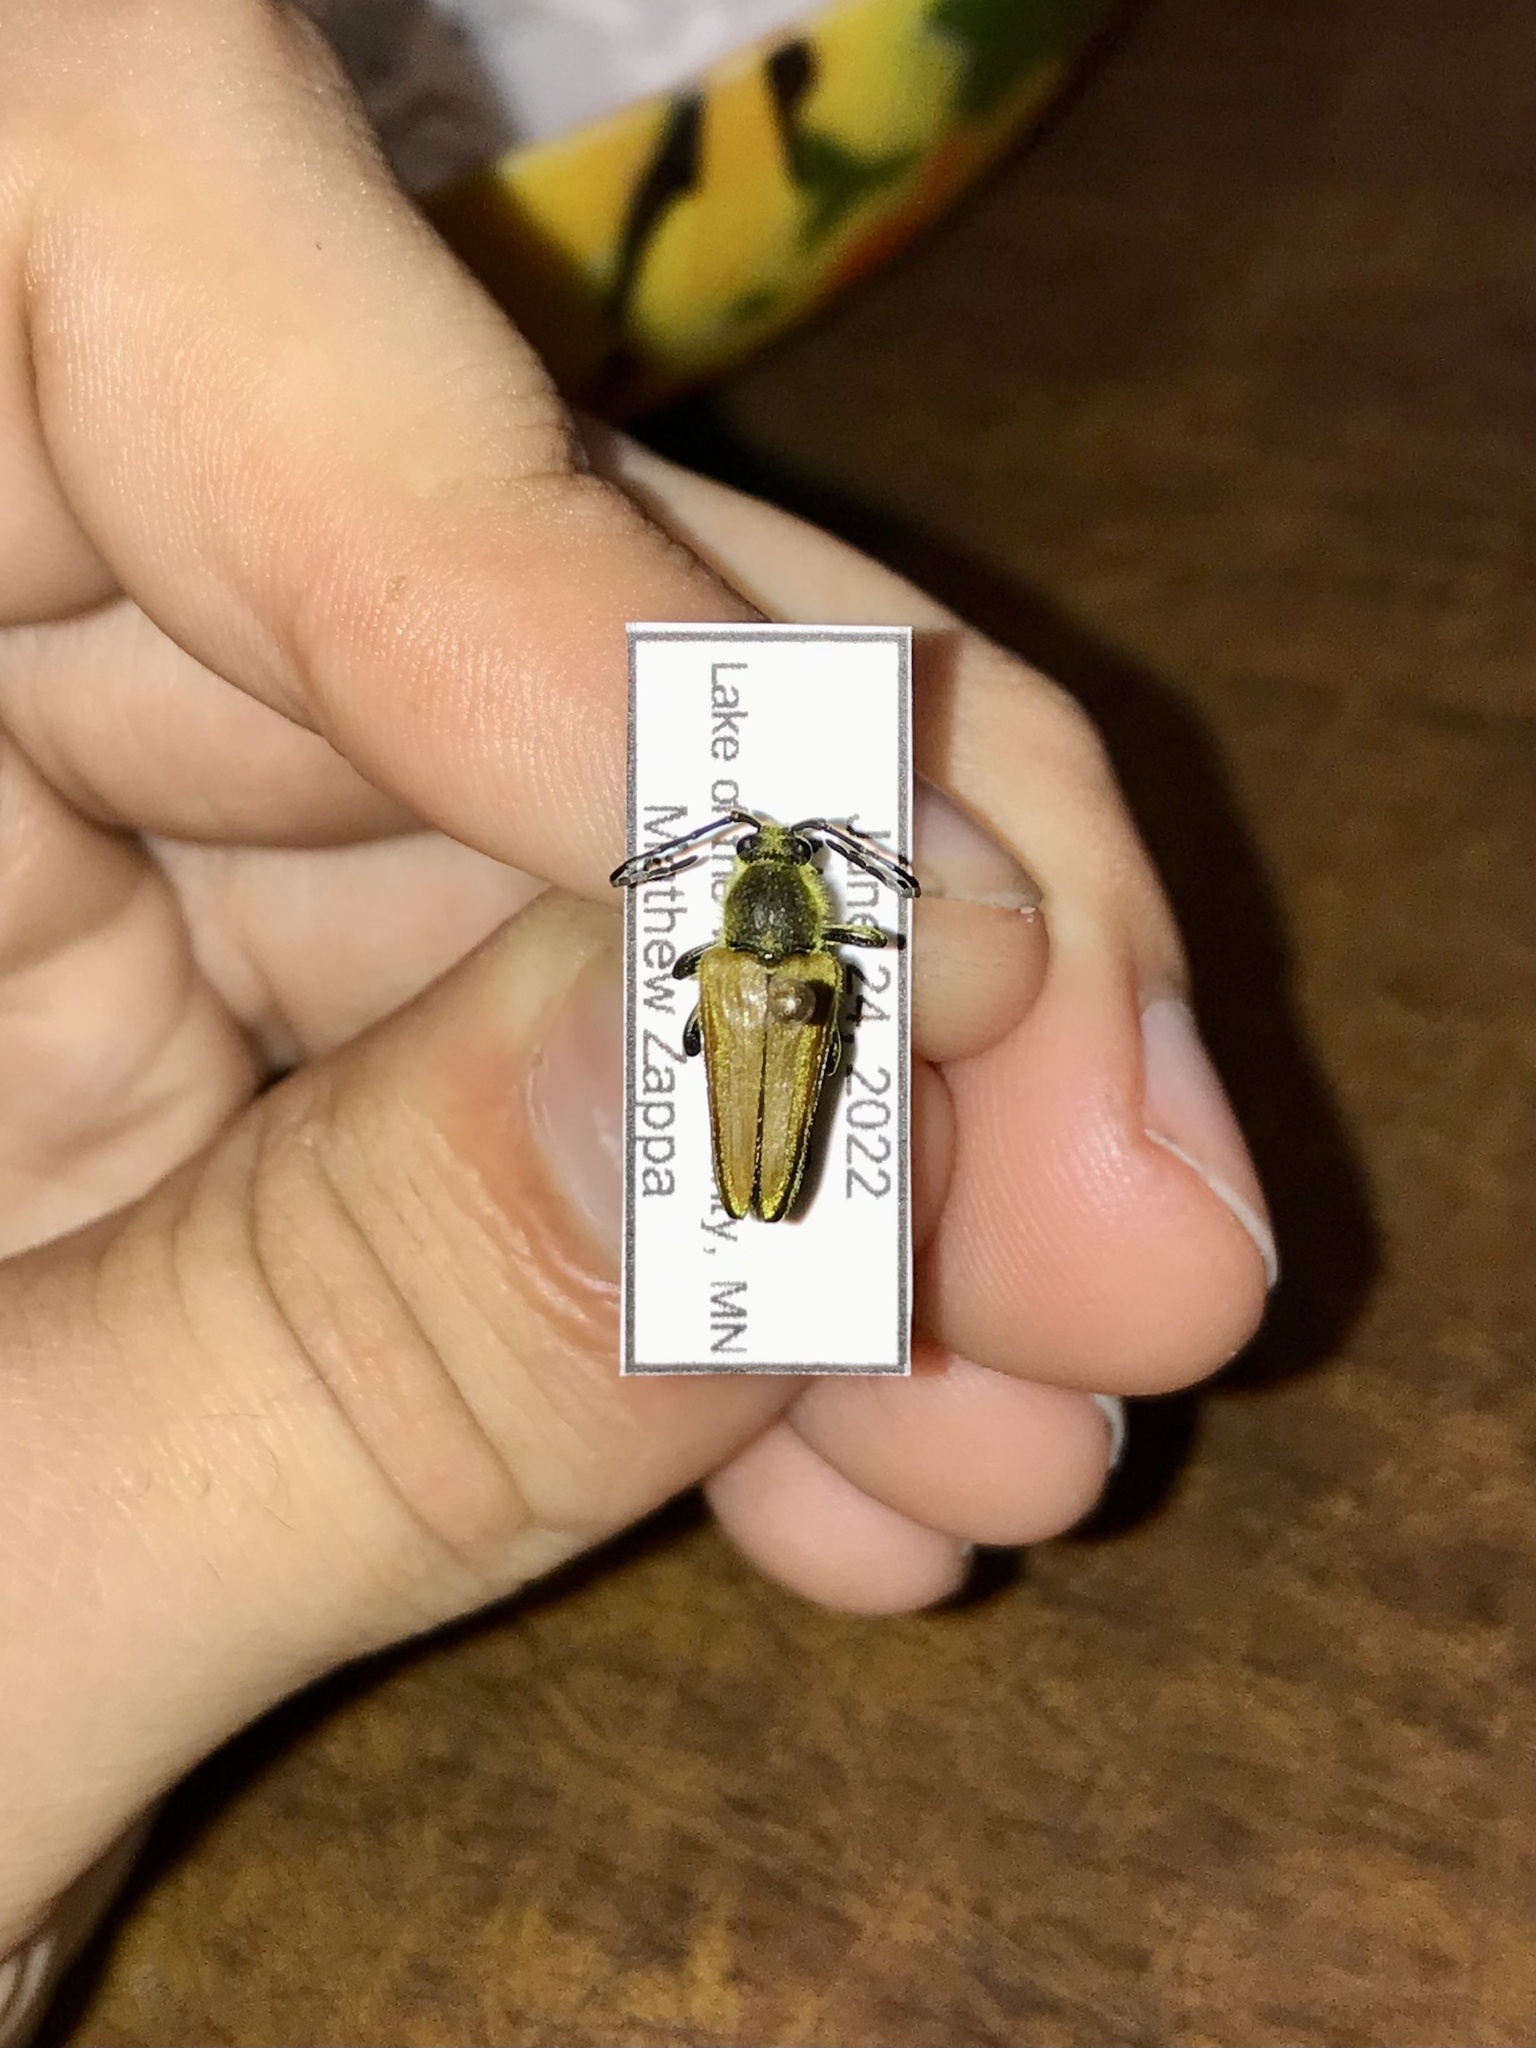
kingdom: Animalia
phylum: Arthropoda
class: Insecta
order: Coleoptera
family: Cerambycidae
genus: Cosmosalia
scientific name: Cosmosalia chrysocoma
